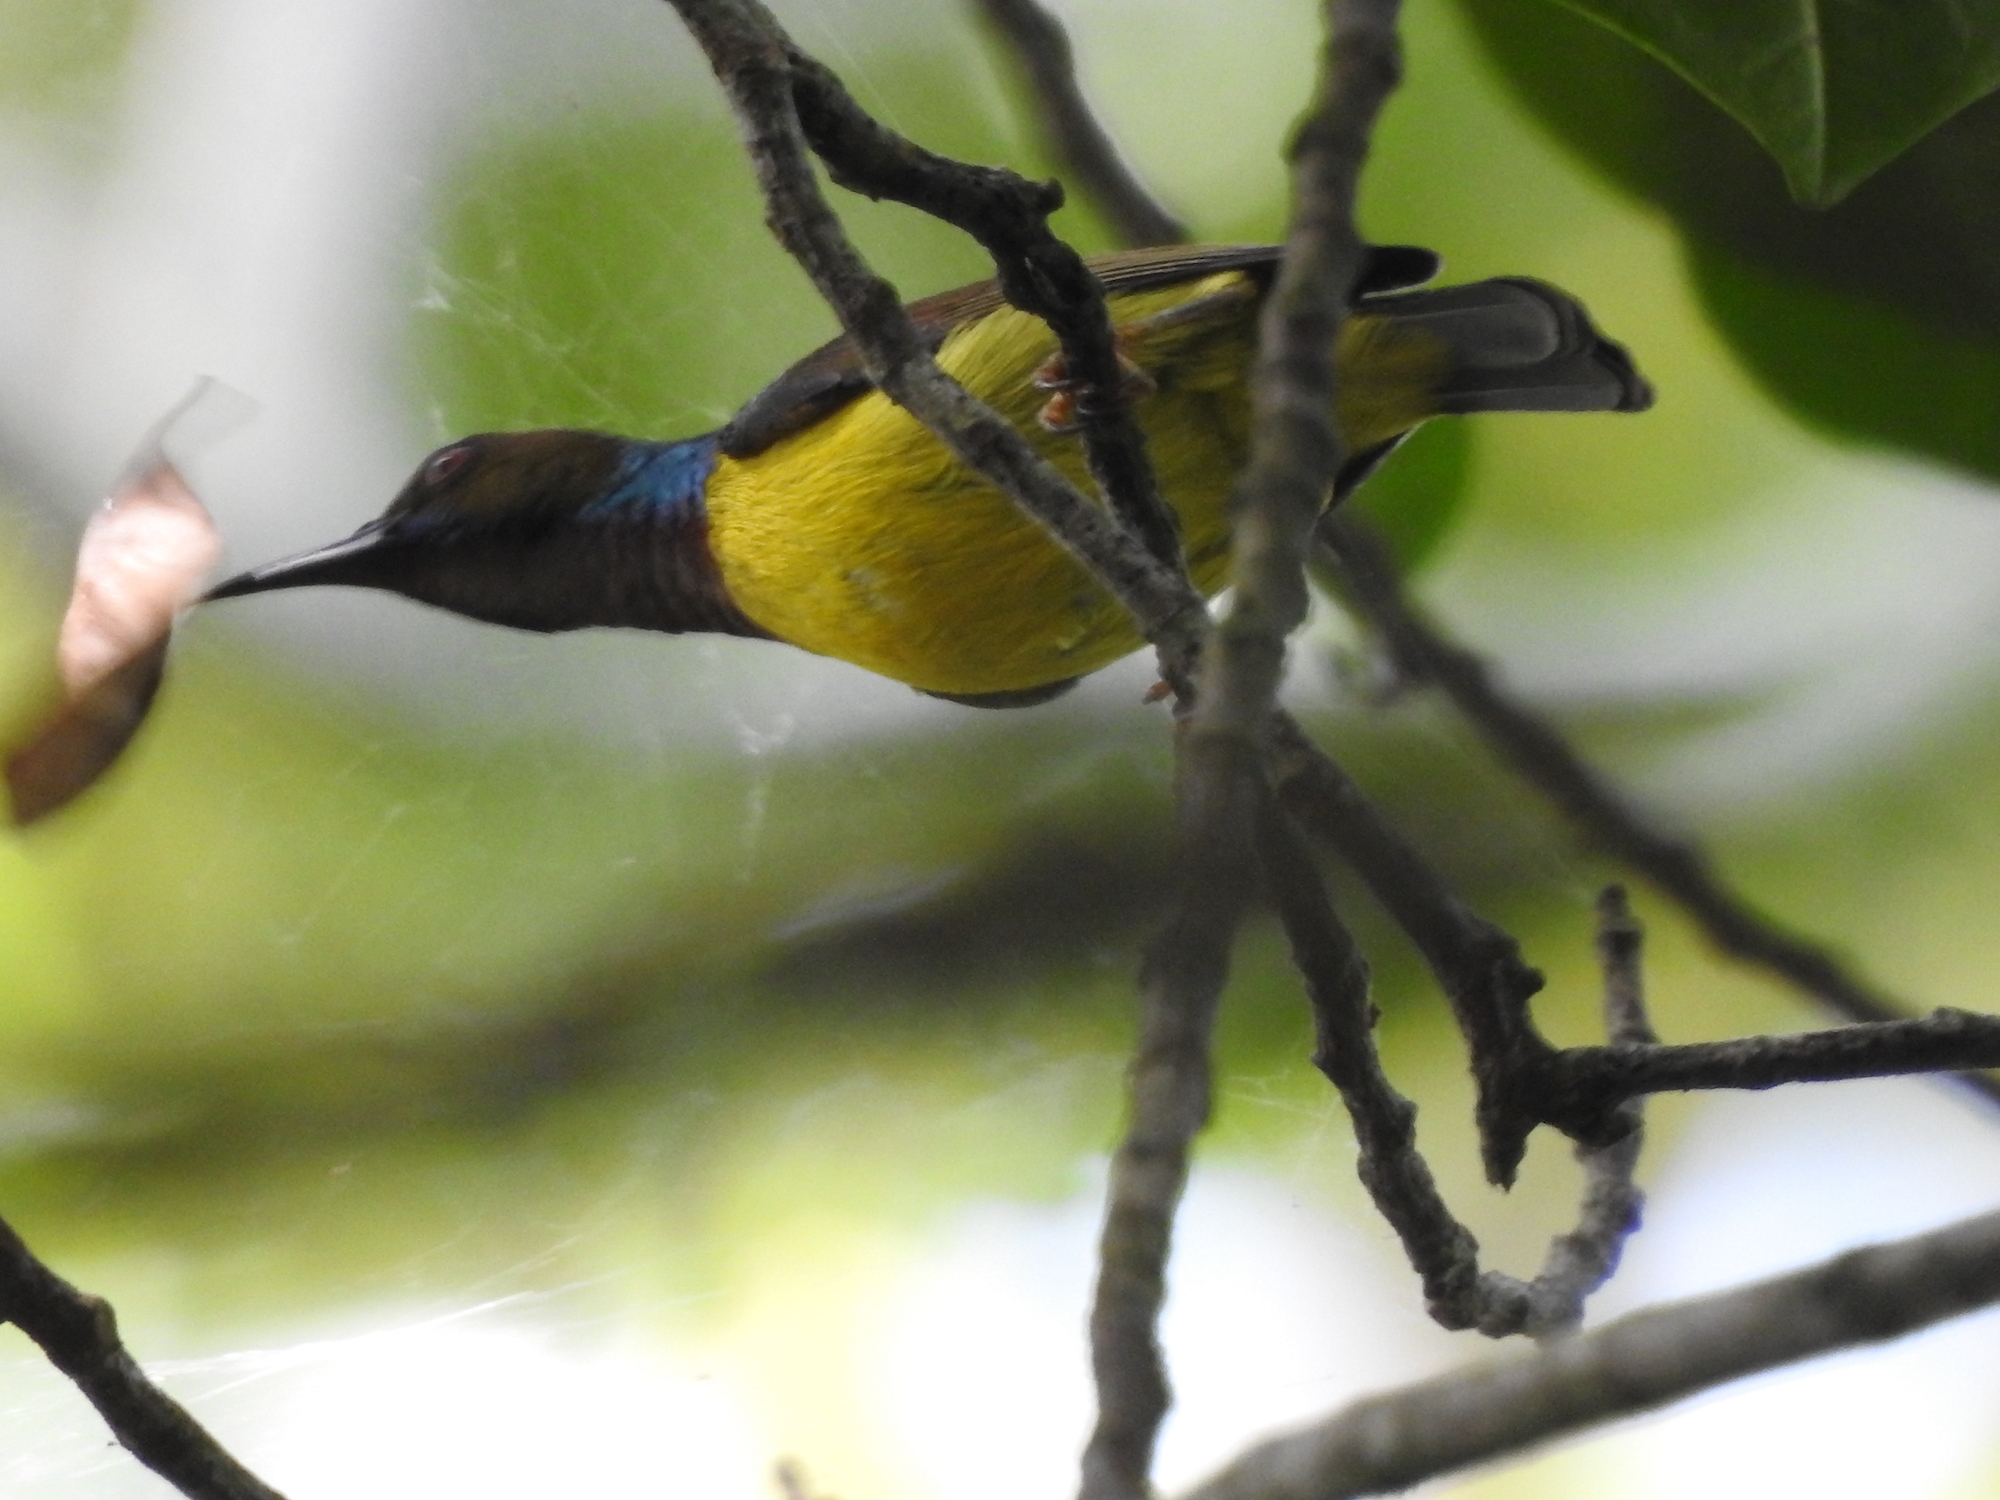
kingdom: Animalia
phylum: Chordata
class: Aves
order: Passeriformes
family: Nectariniidae
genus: Anthreptes
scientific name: Anthreptes malacensis
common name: Brown-throated sunbird
